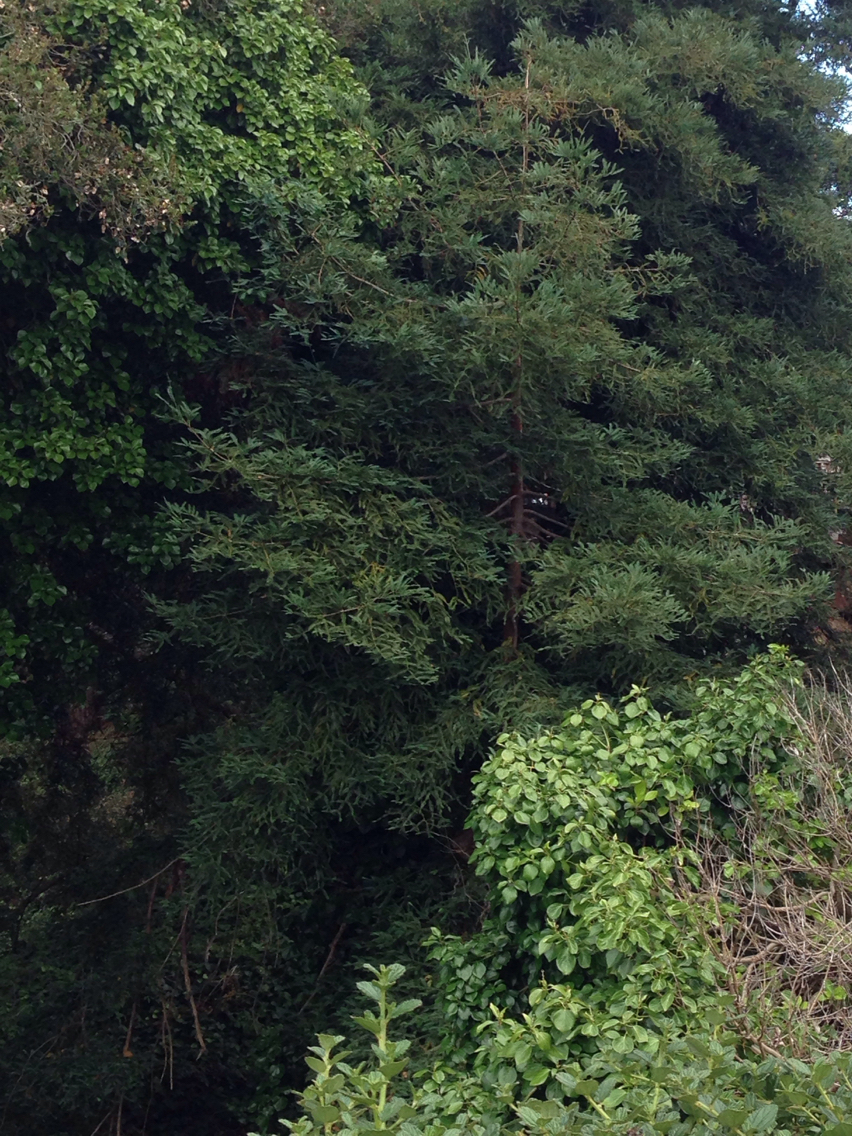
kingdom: Plantae
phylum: Tracheophyta
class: Pinopsida
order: Pinales
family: Cupressaceae
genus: Sequoia
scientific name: Sequoia sempervirens
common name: Coast redwood
